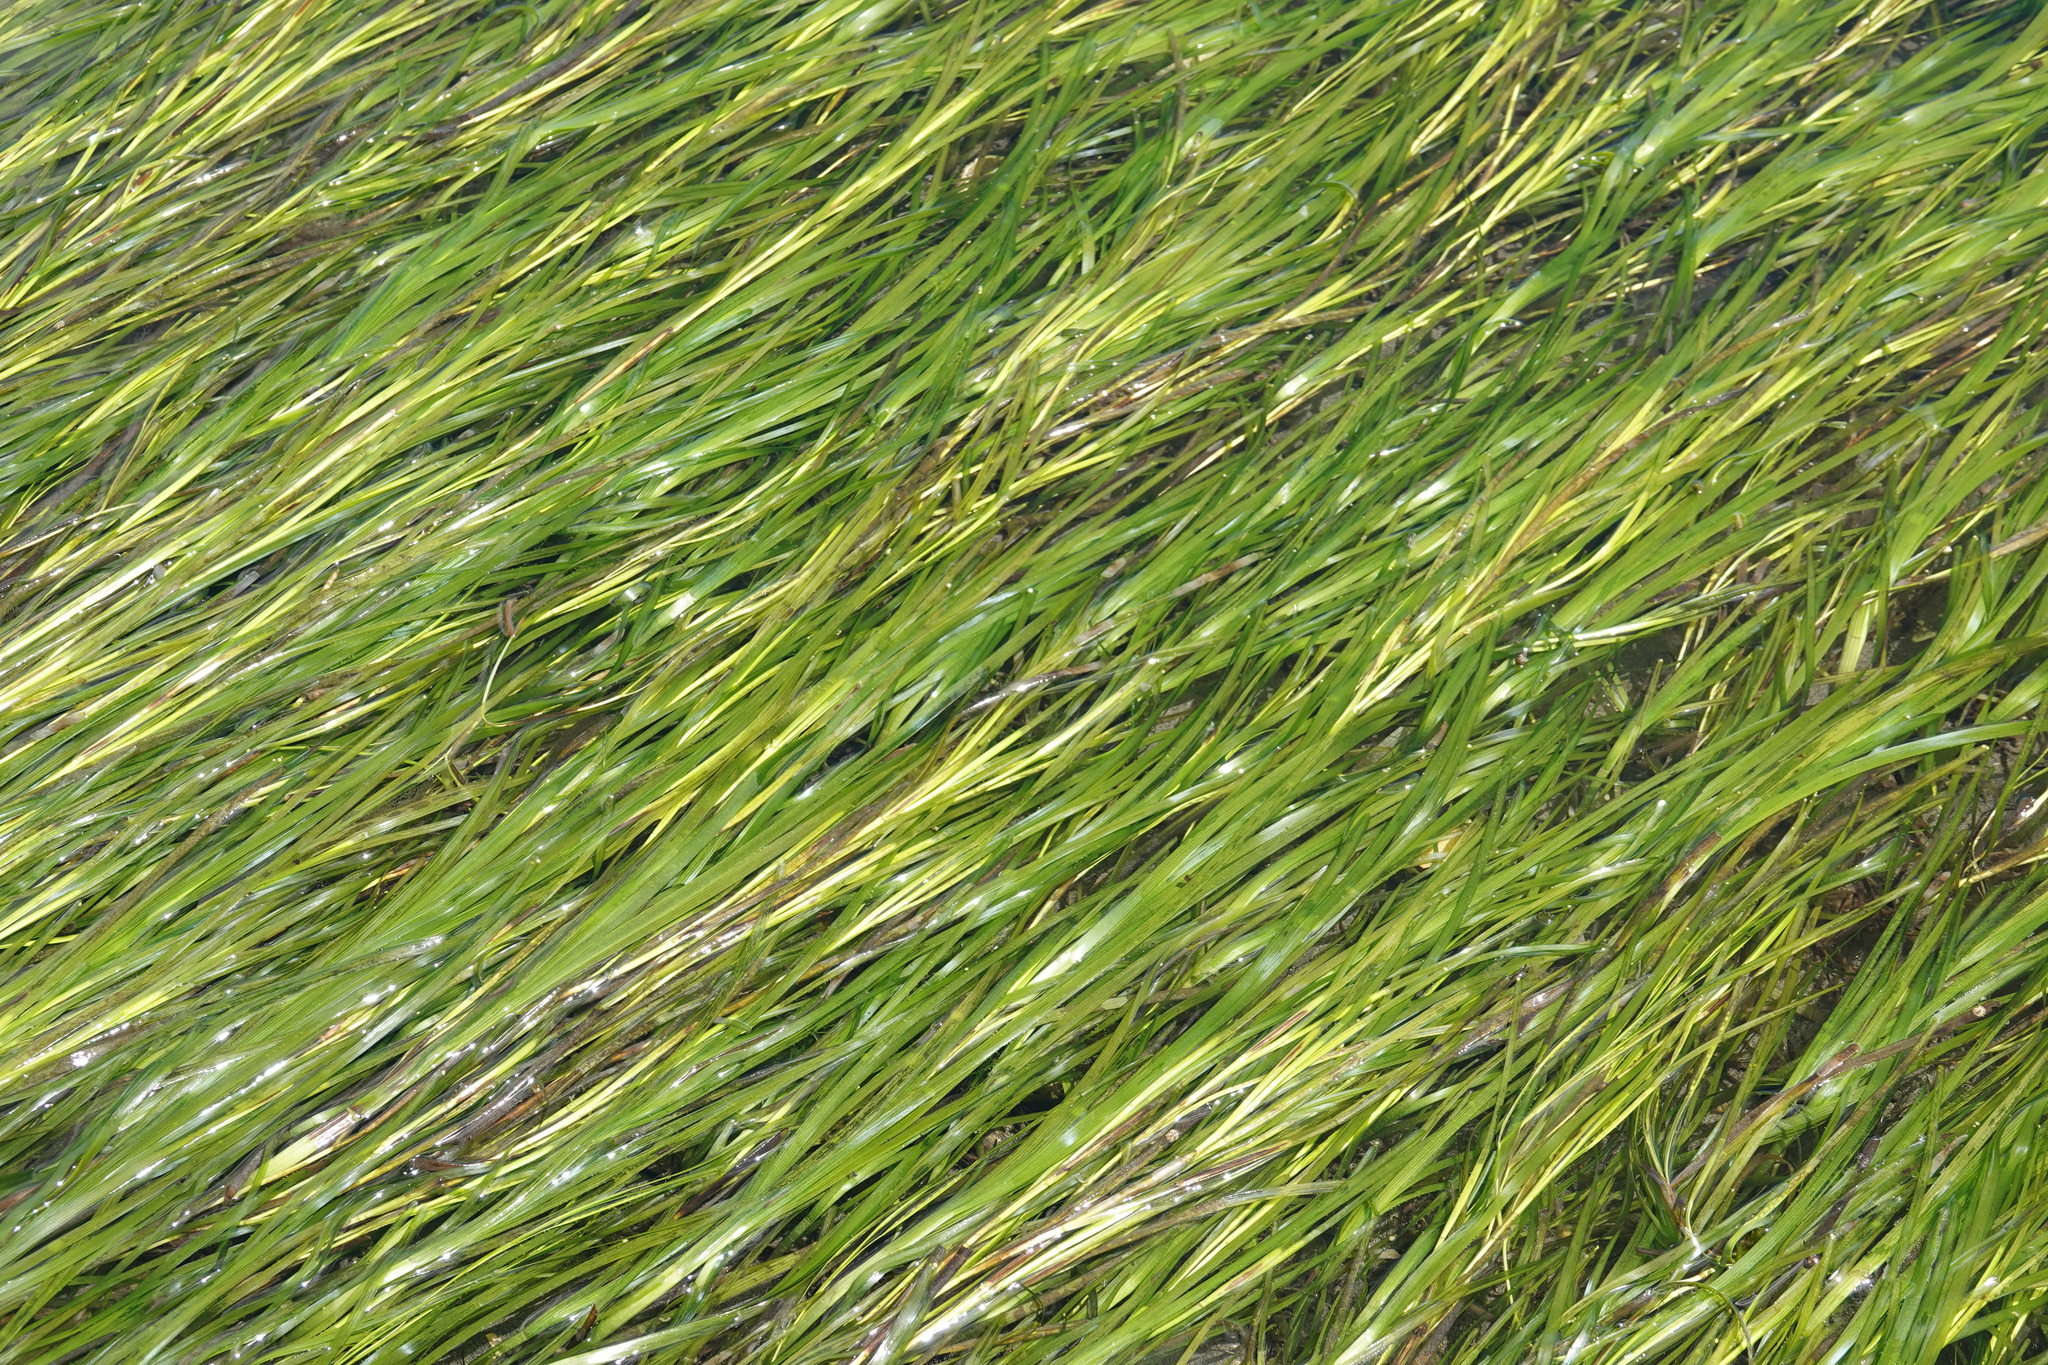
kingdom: Plantae
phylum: Tracheophyta
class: Liliopsida
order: Alismatales
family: Zosteraceae
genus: Zostera
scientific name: Zostera marina
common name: Eelgrass
